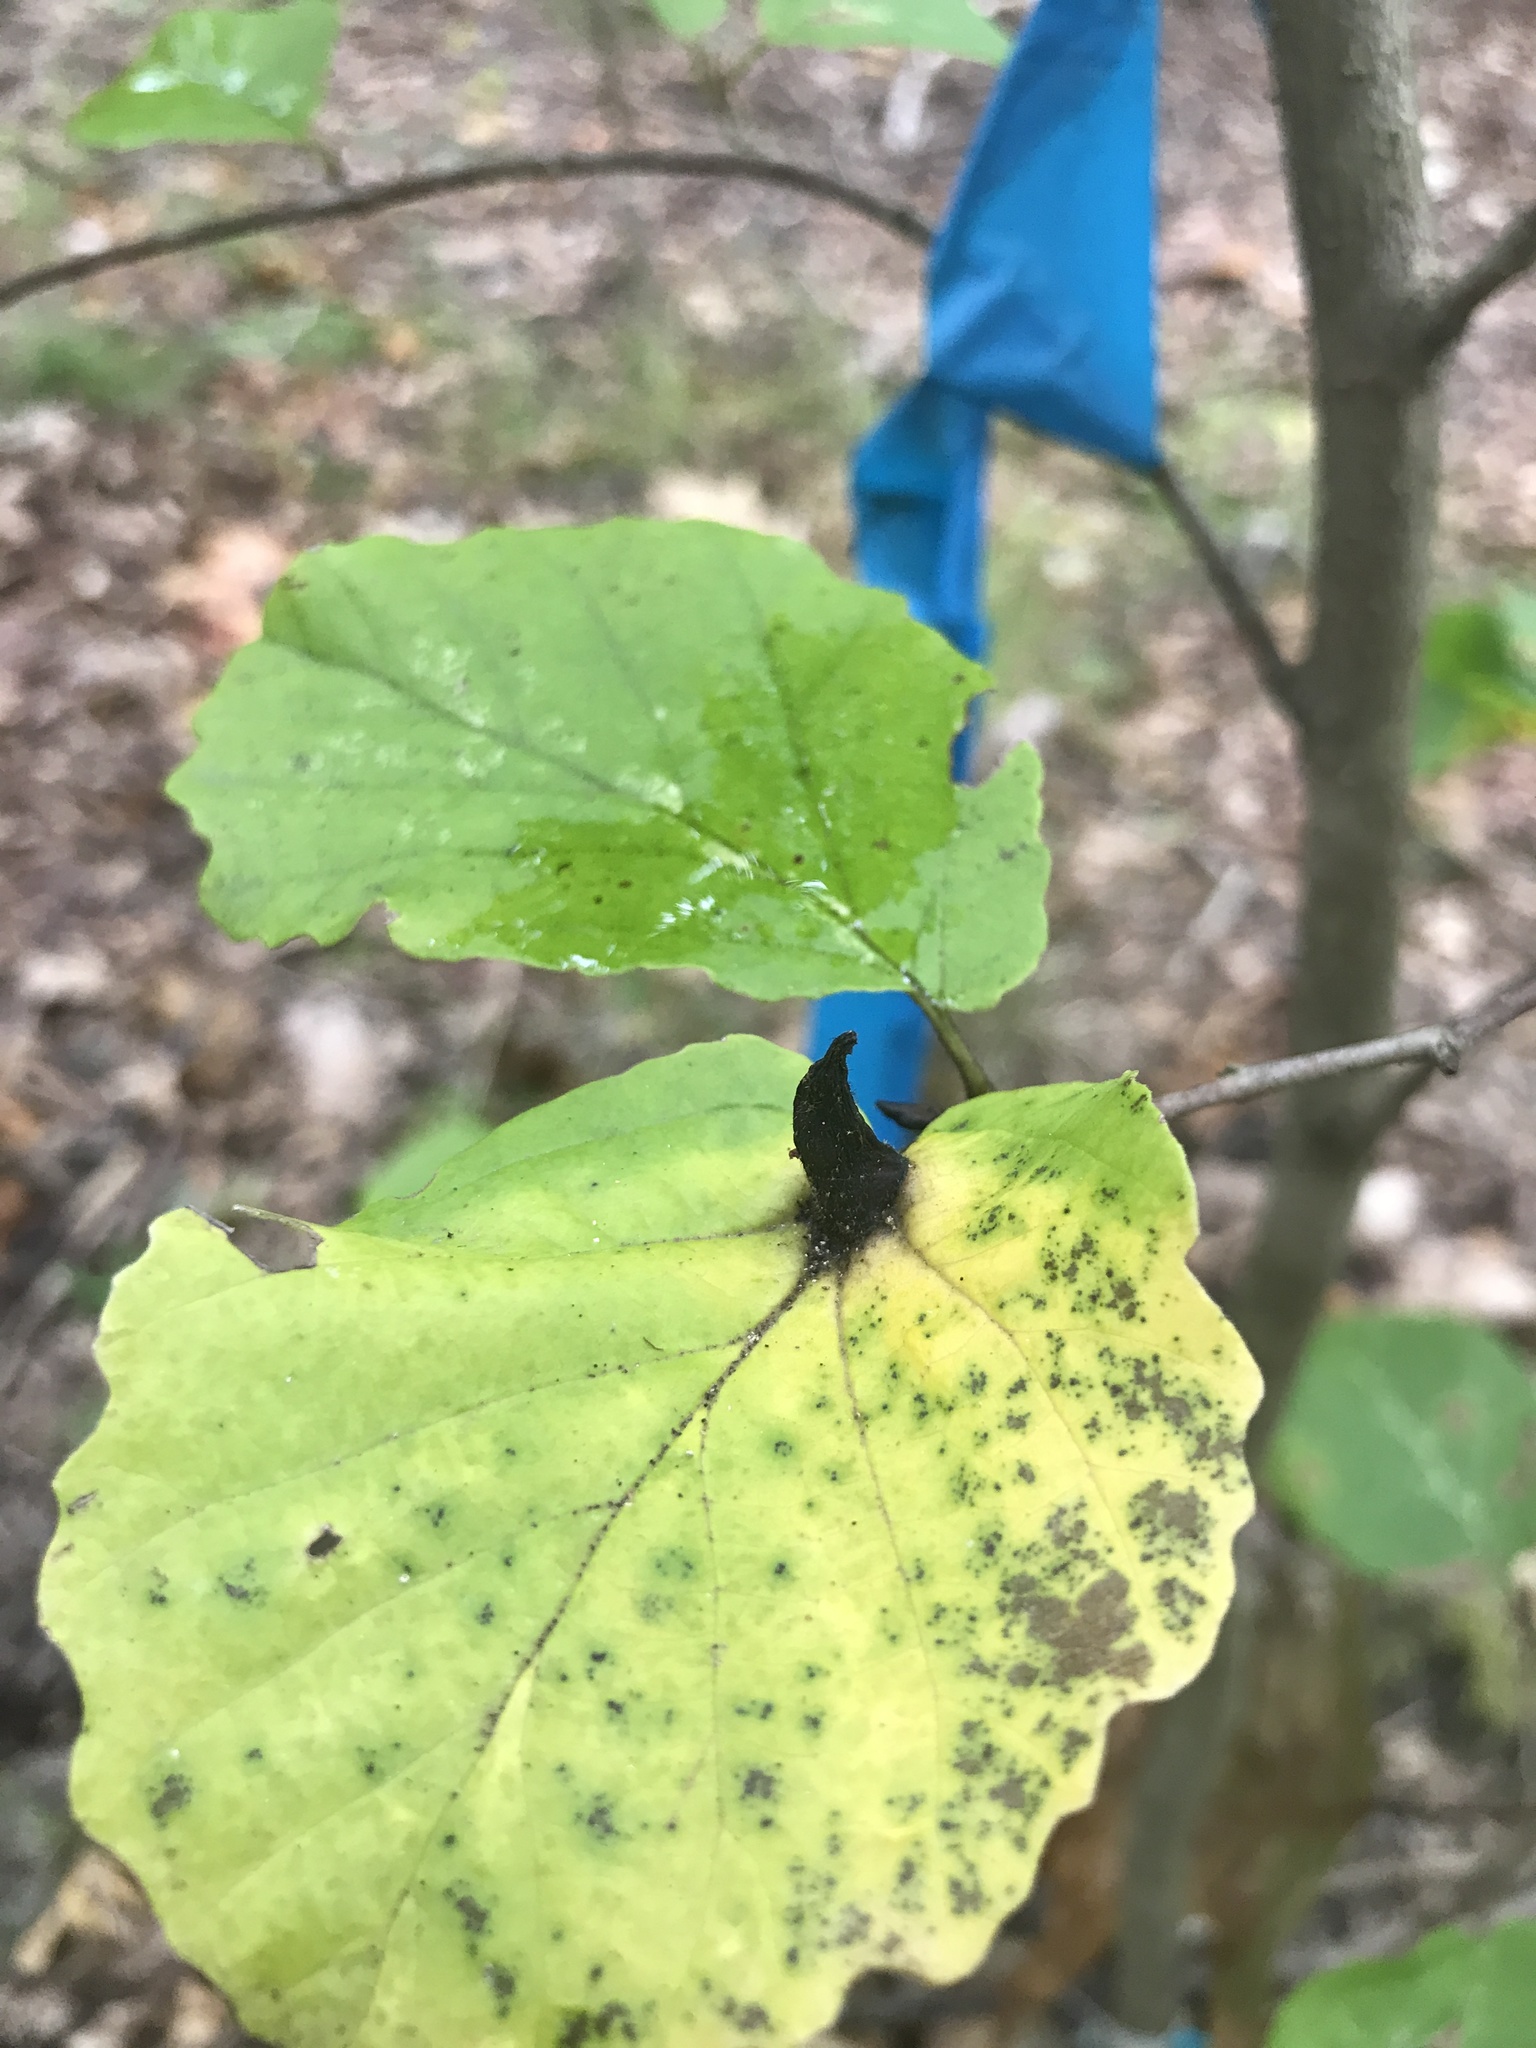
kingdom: Animalia
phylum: Arthropoda
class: Insecta
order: Hemiptera
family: Aphididae
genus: Hormaphis
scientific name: Hormaphis hamamelidis
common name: Witch-hazel cone gall aphid
